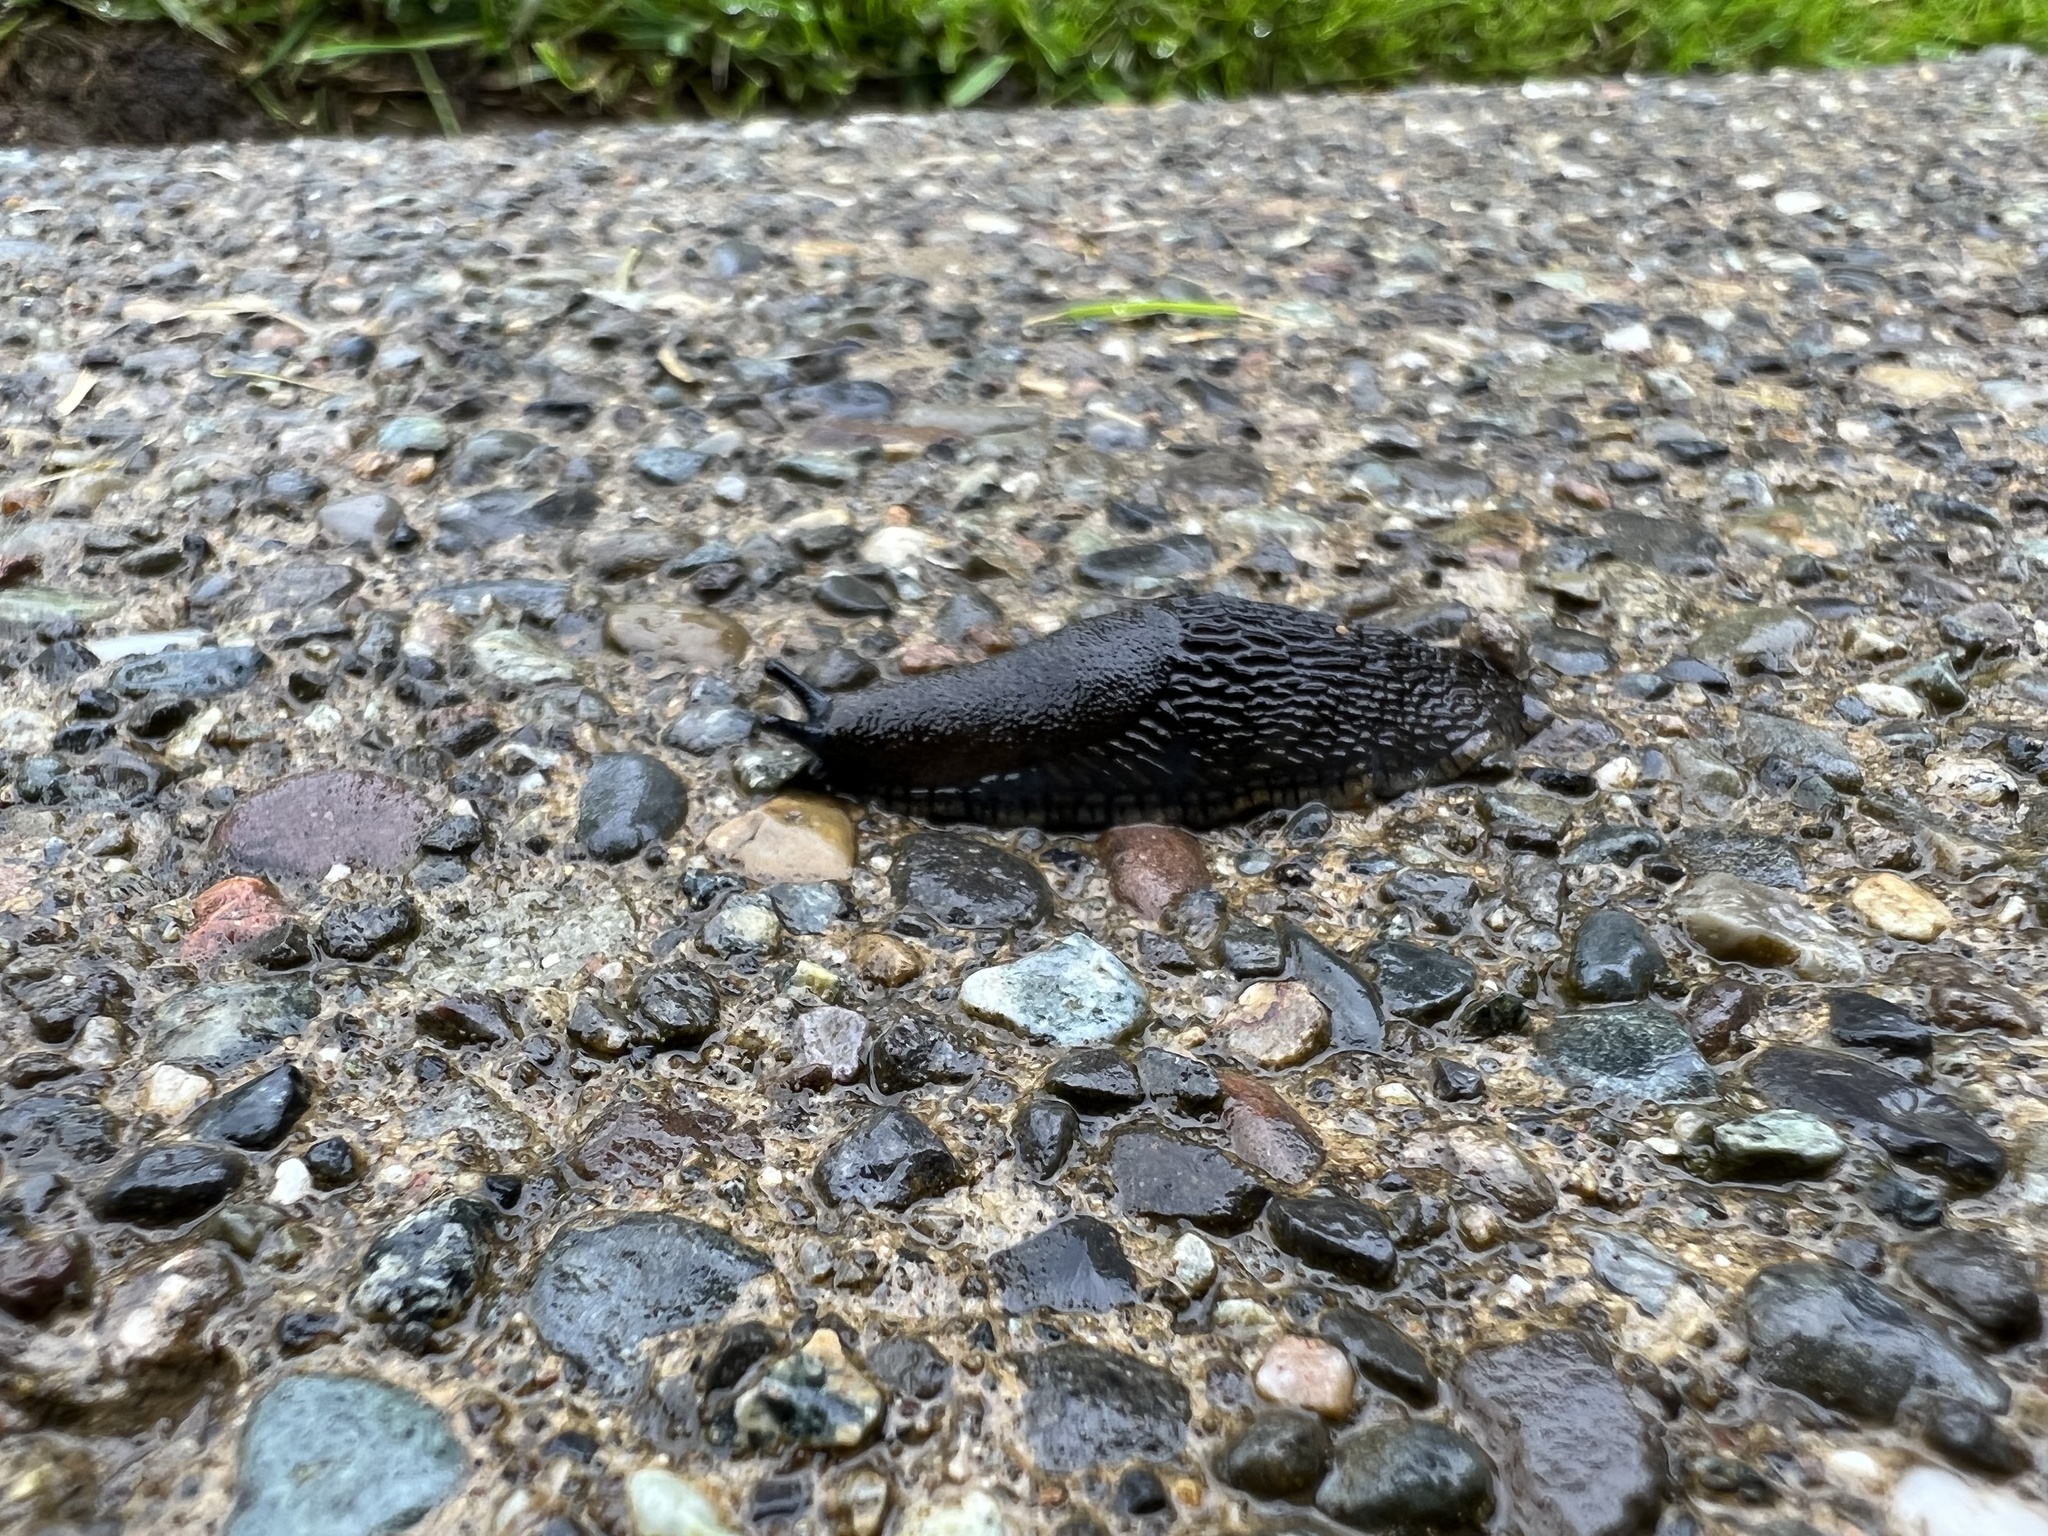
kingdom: Animalia
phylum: Mollusca
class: Gastropoda
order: Stylommatophora
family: Arionidae
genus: Arion
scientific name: Arion
